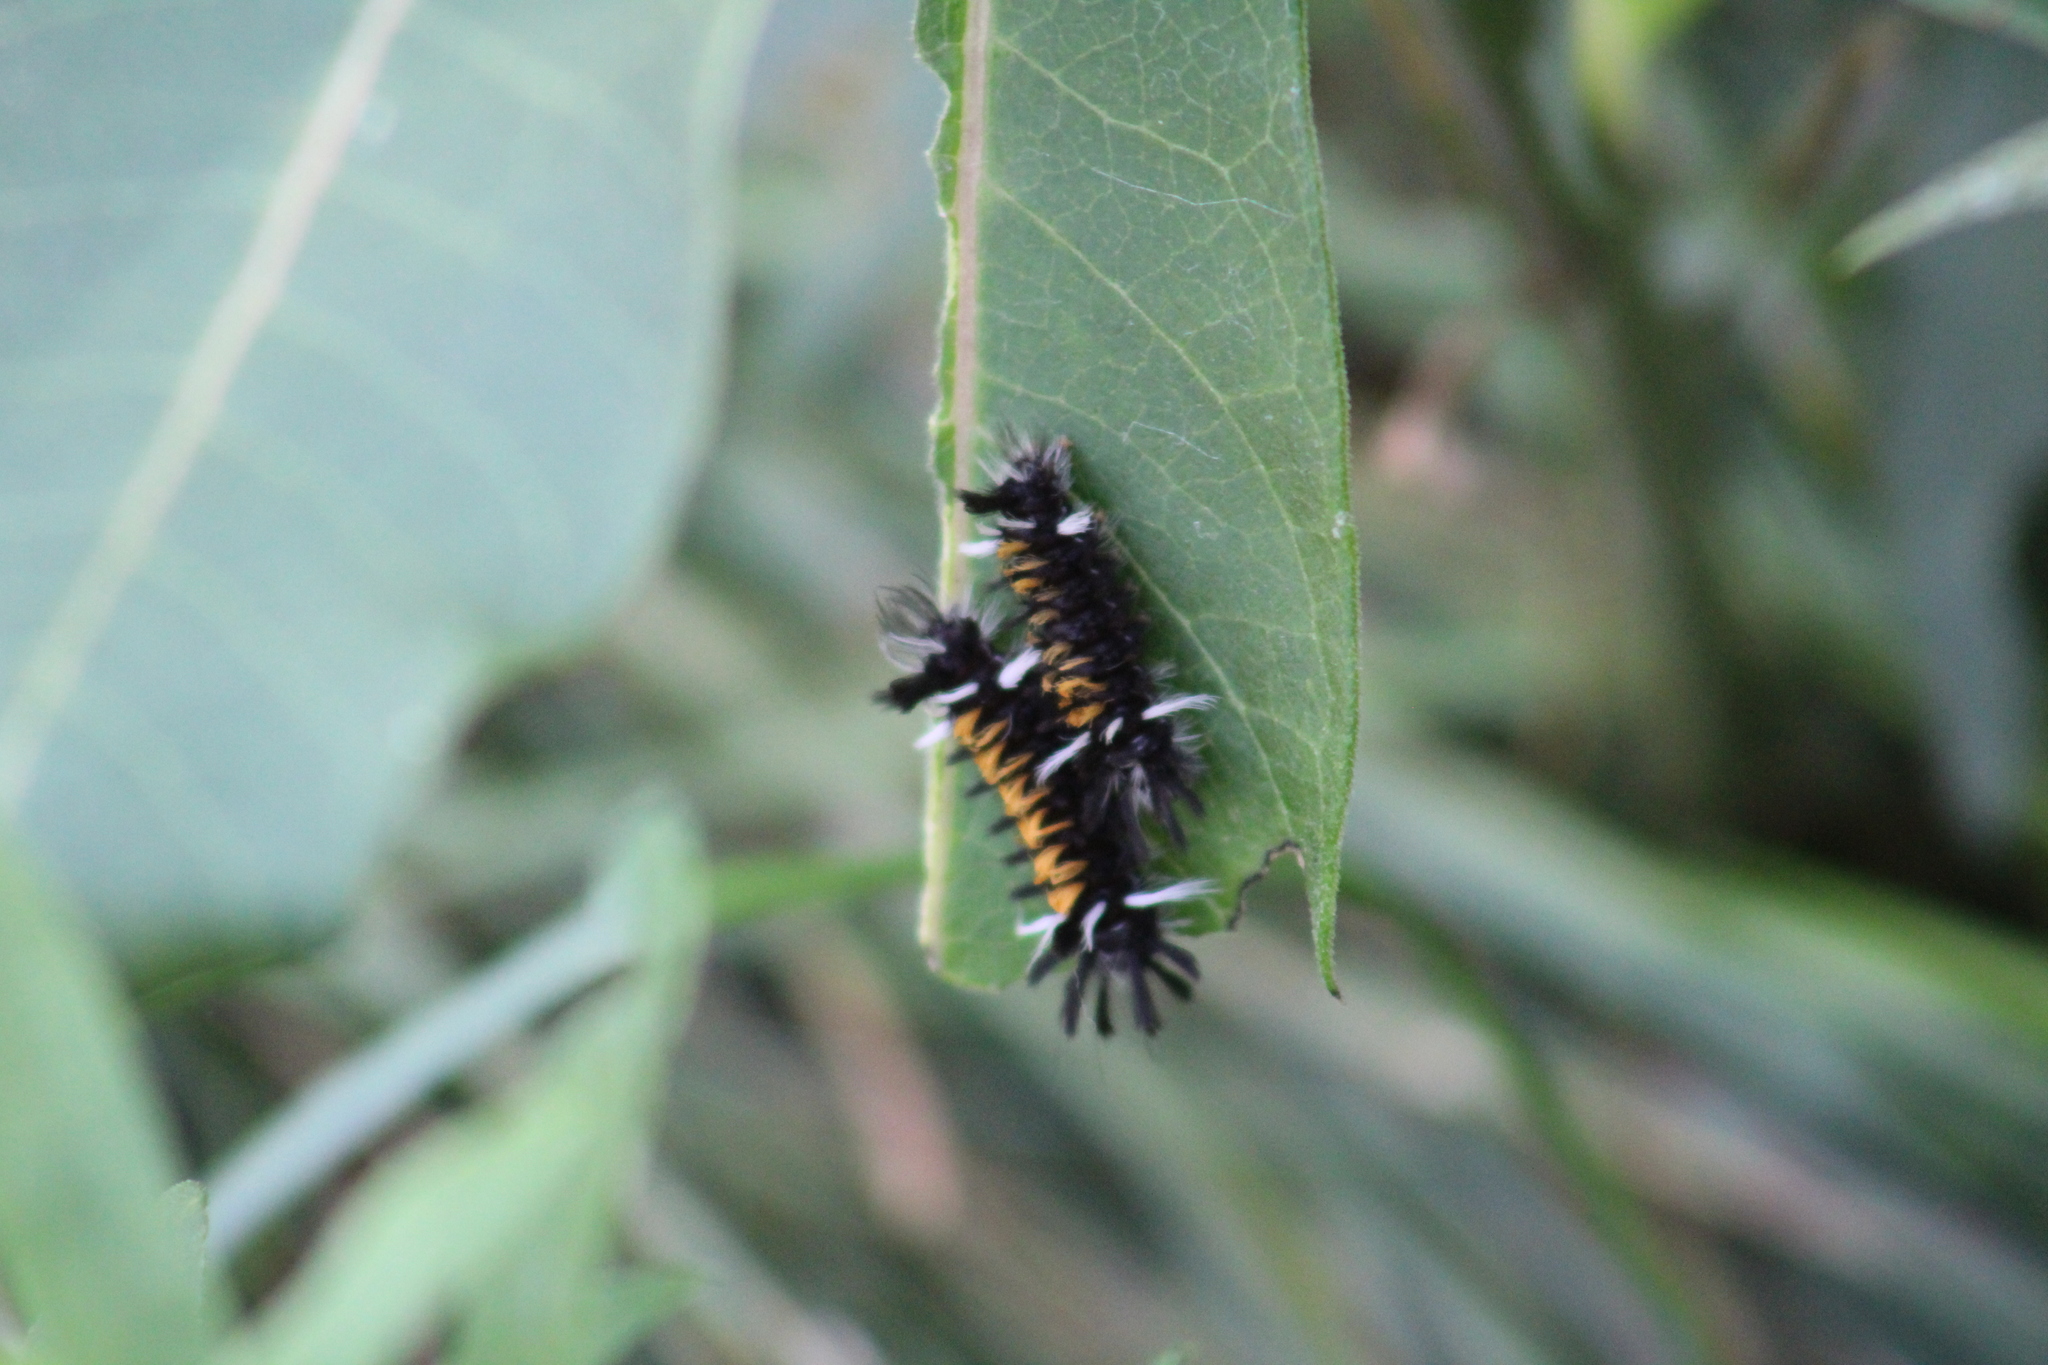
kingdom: Animalia
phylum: Arthropoda
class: Insecta
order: Lepidoptera
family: Erebidae
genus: Euchaetes
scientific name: Euchaetes egle
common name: Milkweed tussock moth
